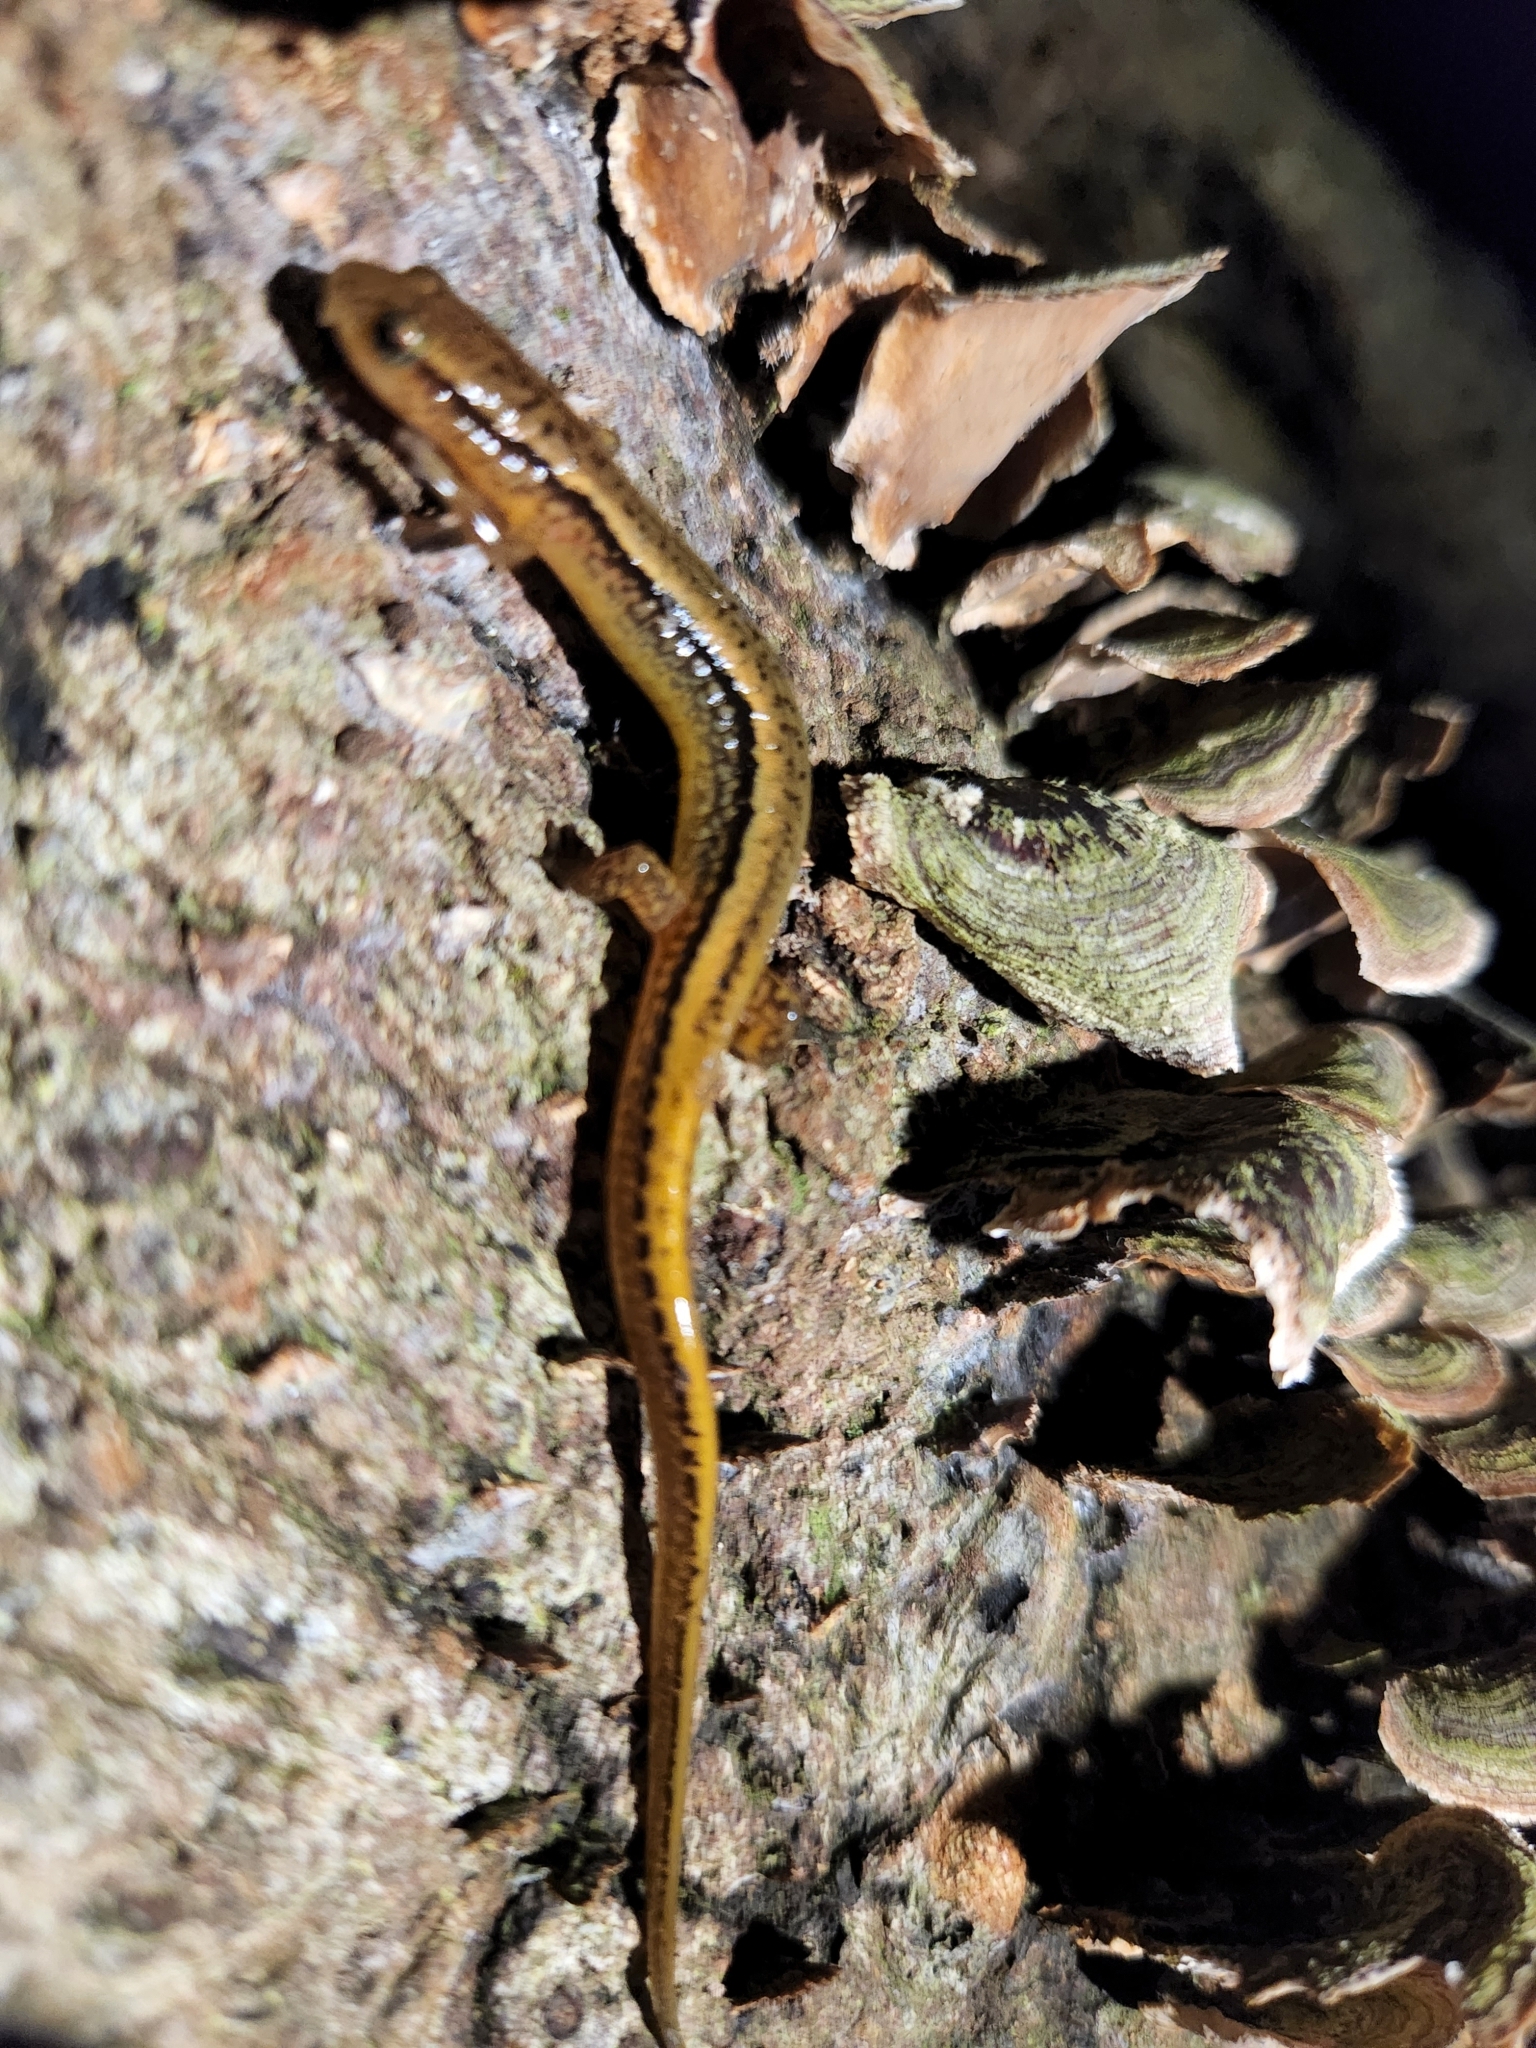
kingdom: Animalia
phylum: Chordata
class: Amphibia
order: Caudata
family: Plethodontidae
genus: Eurycea
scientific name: Eurycea bislineata
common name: Northern two-lined salamander
